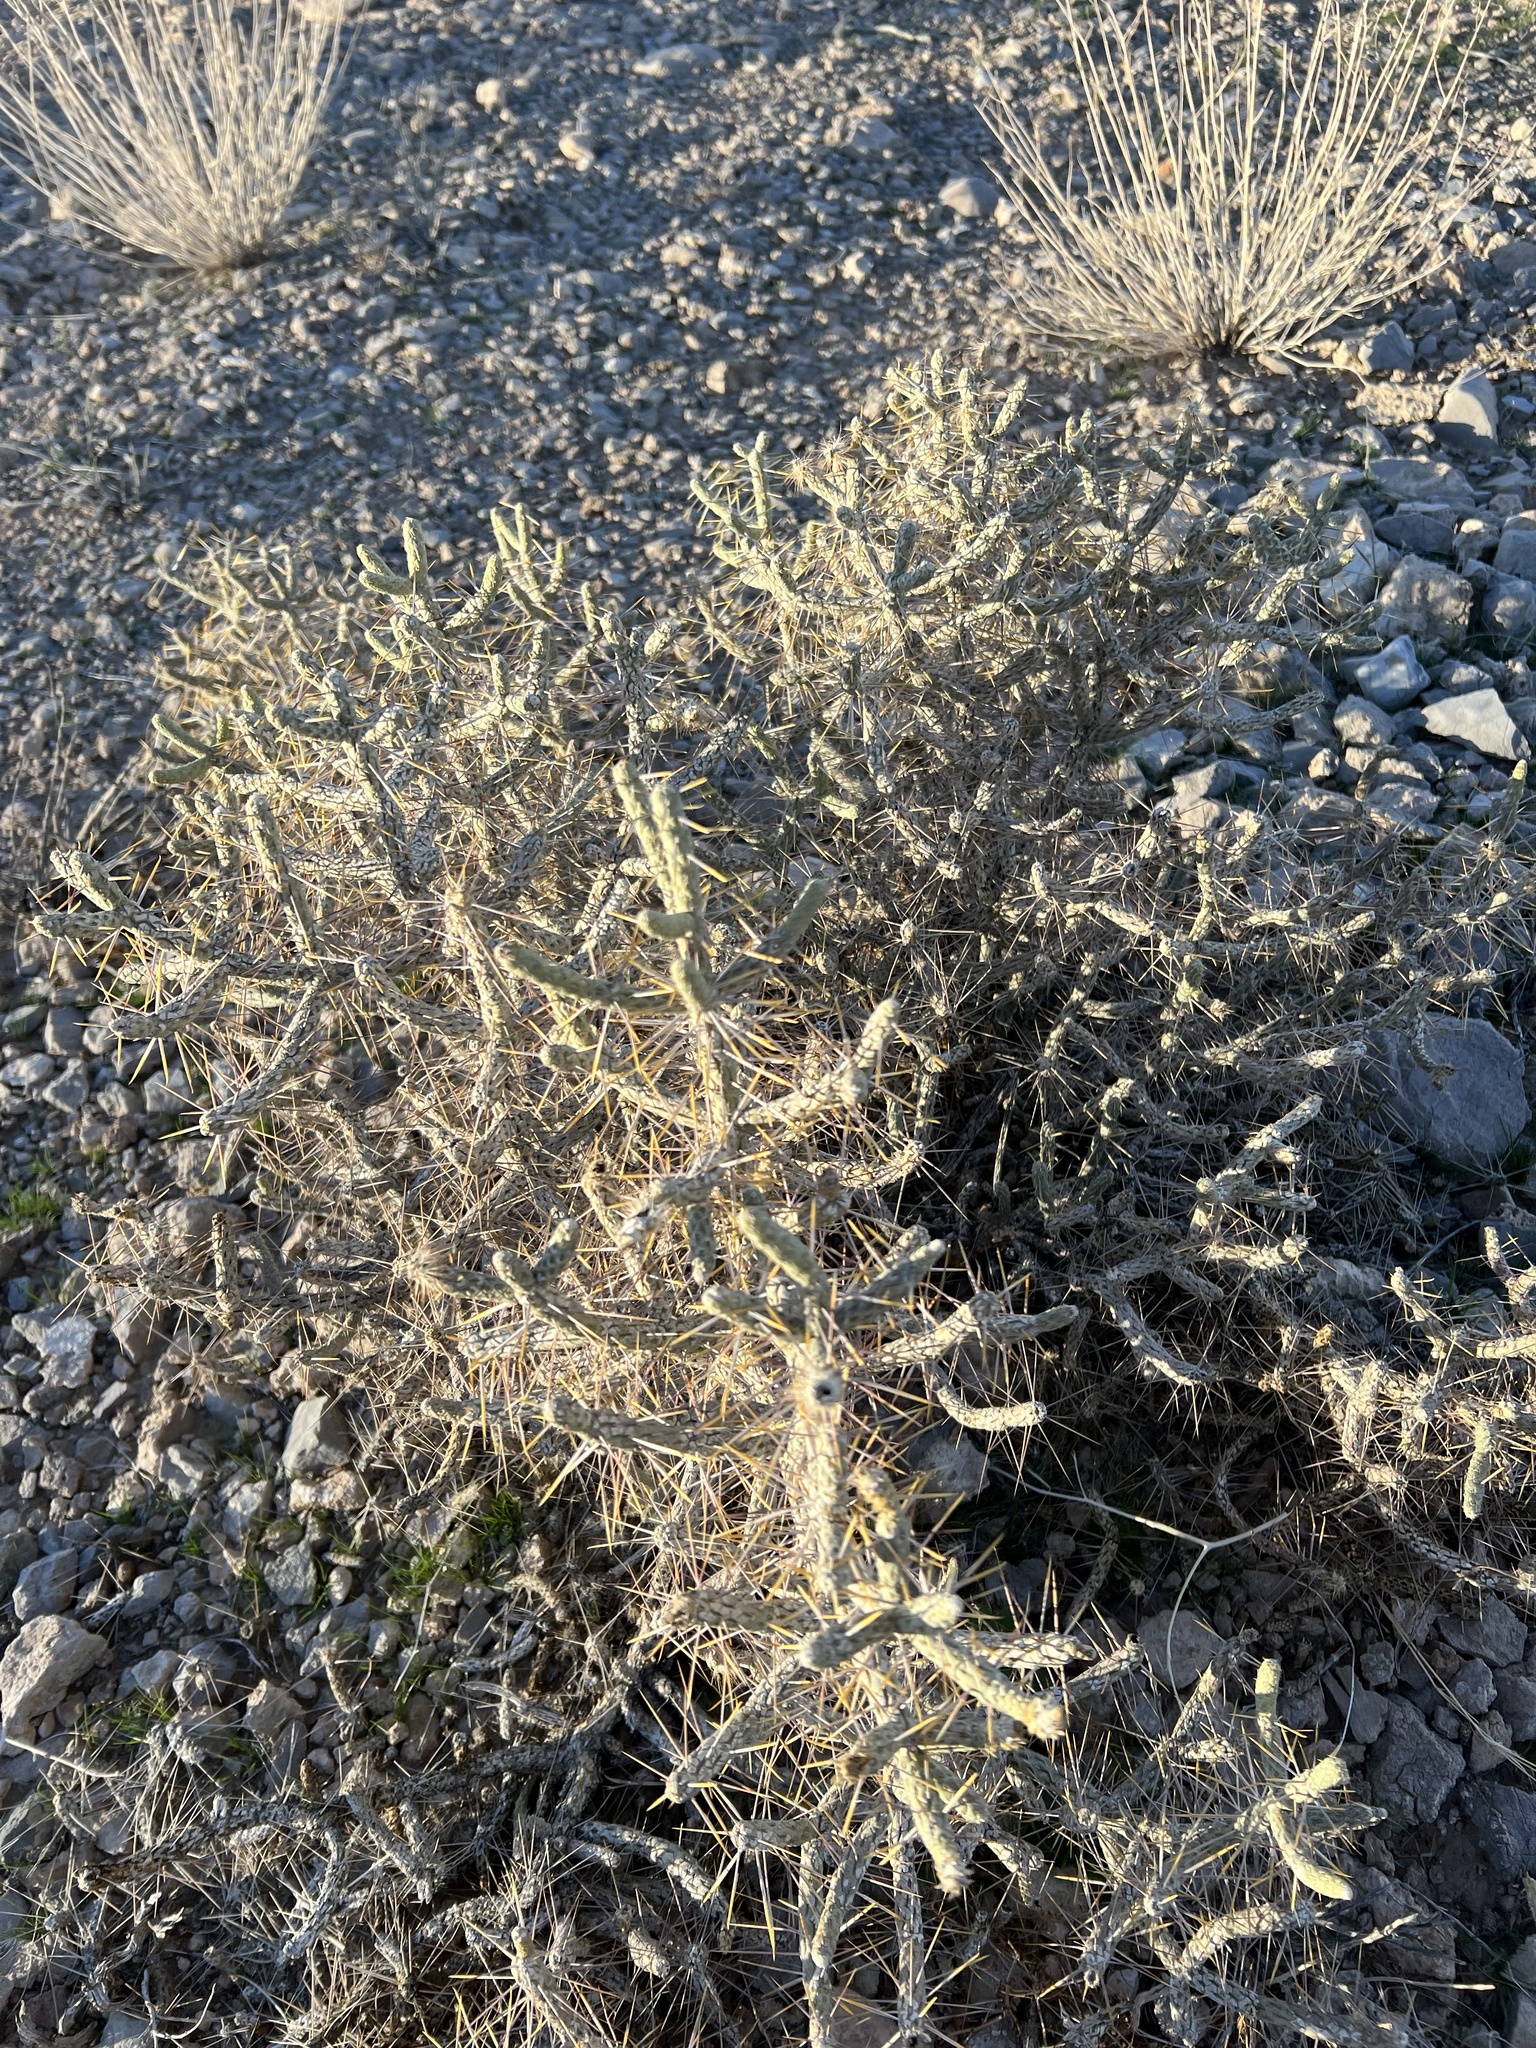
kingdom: Plantae
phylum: Tracheophyta
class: Magnoliopsida
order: Caryophyllales
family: Cactaceae
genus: Cylindropuntia
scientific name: Cylindropuntia ramosissima
